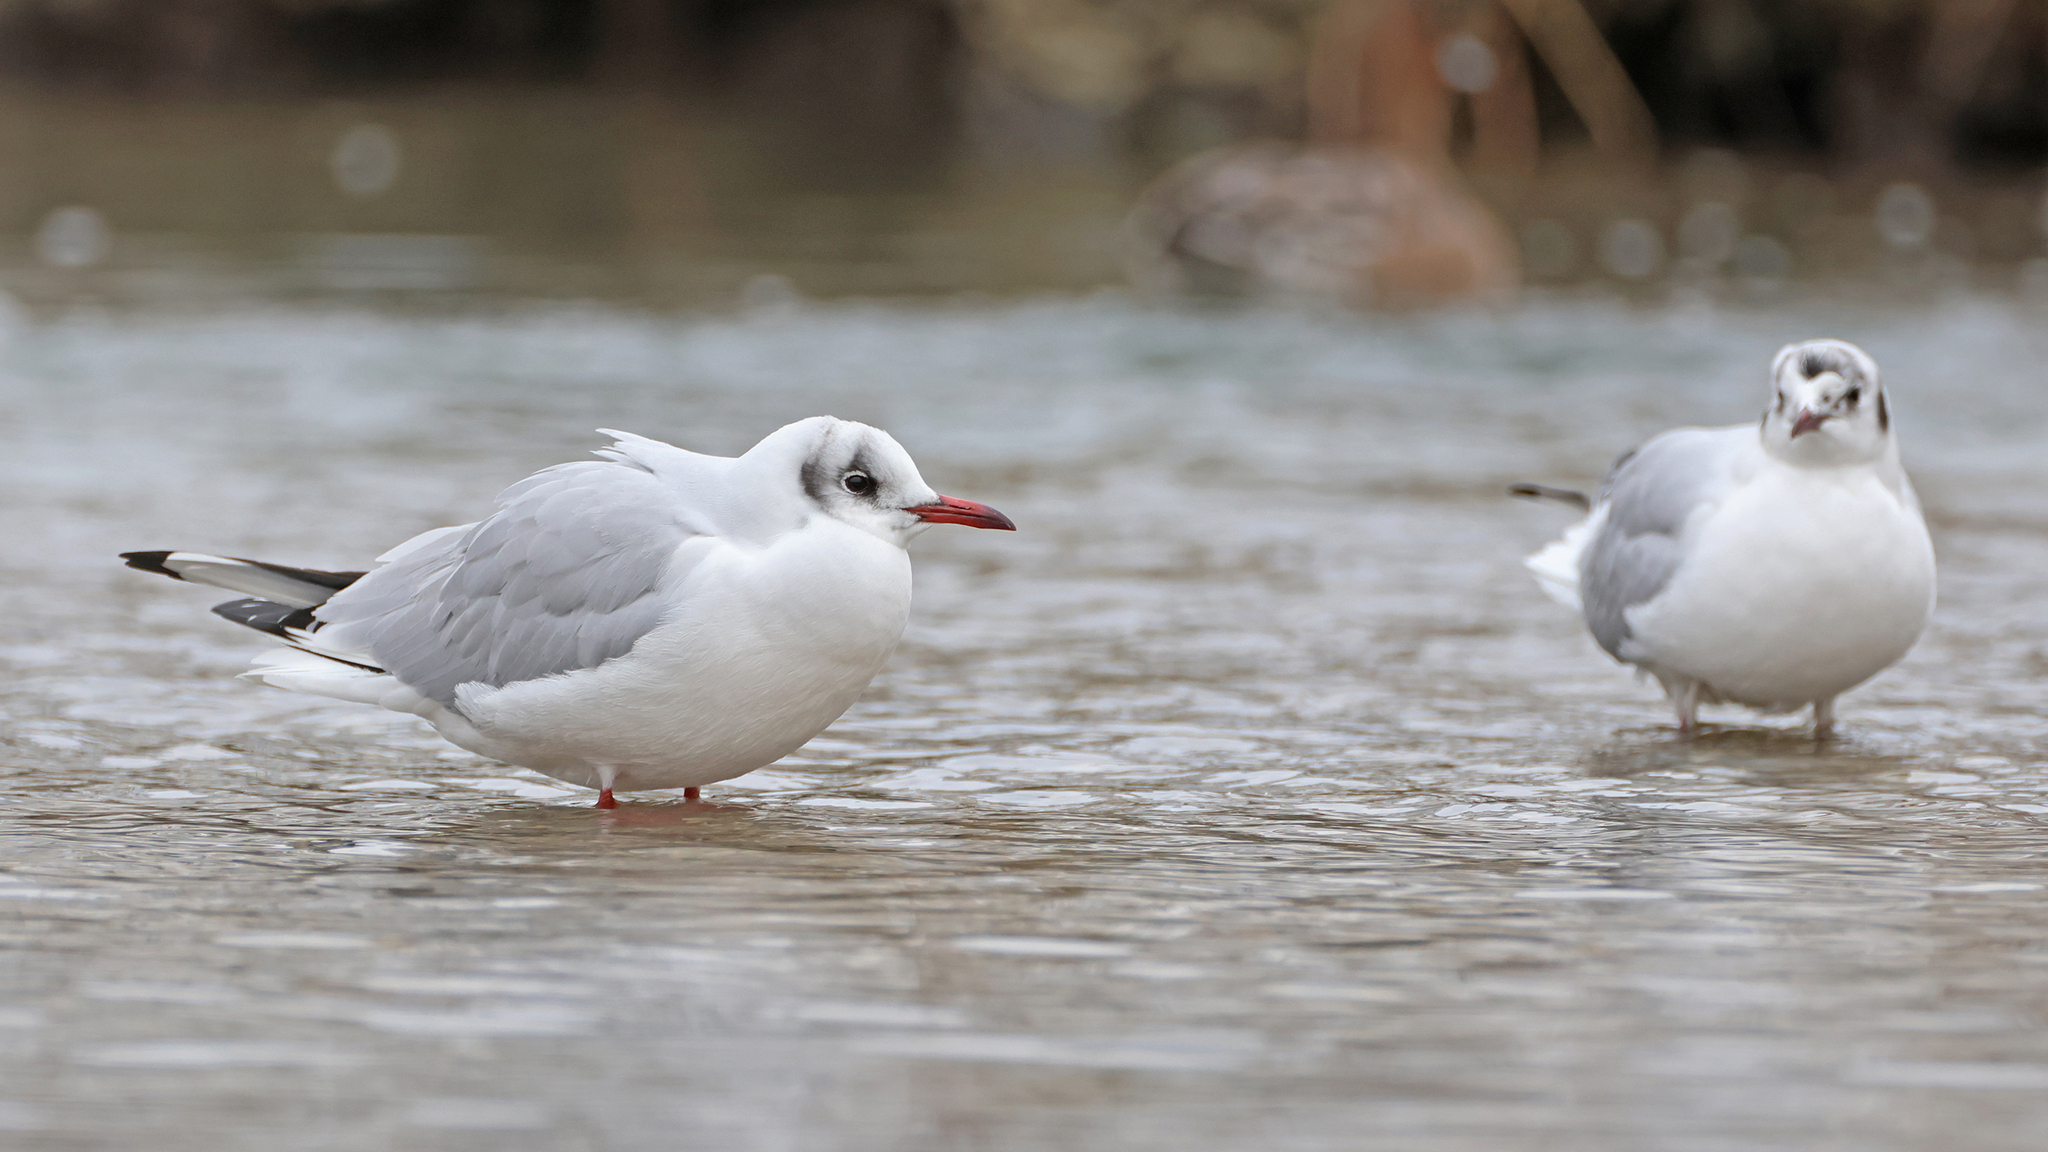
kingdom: Animalia
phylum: Chordata
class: Aves
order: Charadriiformes
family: Laridae
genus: Chroicocephalus
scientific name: Chroicocephalus ridibundus
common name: Black-headed gull
